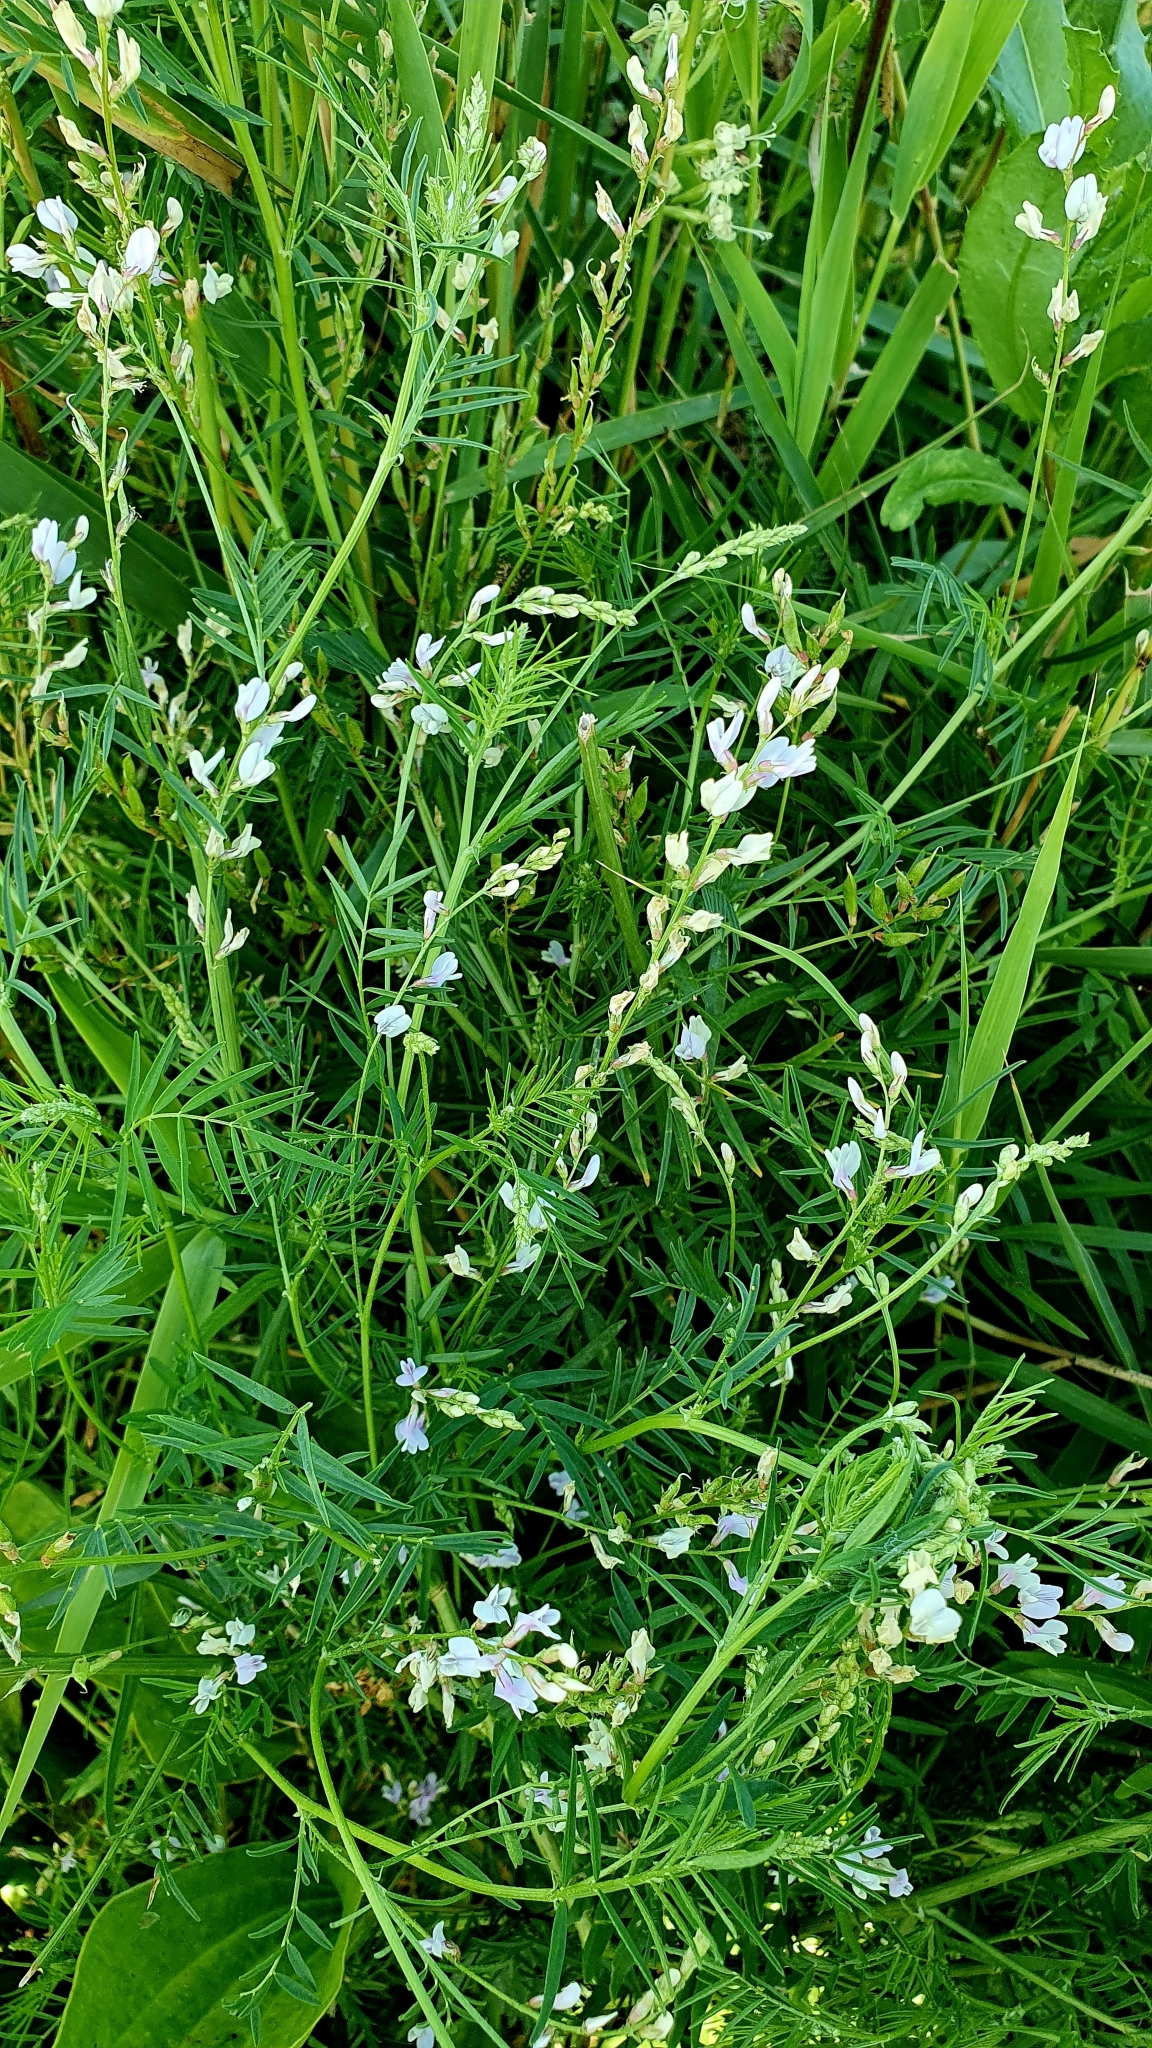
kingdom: Plantae
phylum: Tracheophyta
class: Magnoliopsida
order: Fabales
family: Fabaceae
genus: Astragalus
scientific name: Astragalus sulcatus
